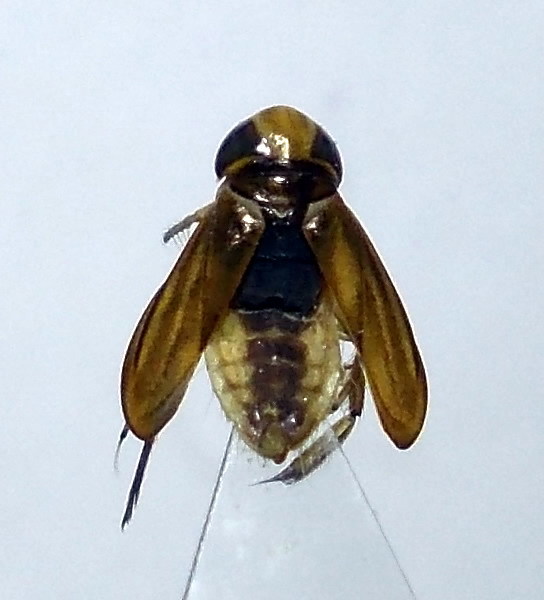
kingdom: Animalia
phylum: Arthropoda
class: Insecta
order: Hemiptera
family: Corixidae
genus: Cymatia
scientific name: Cymatia coleoptrata
